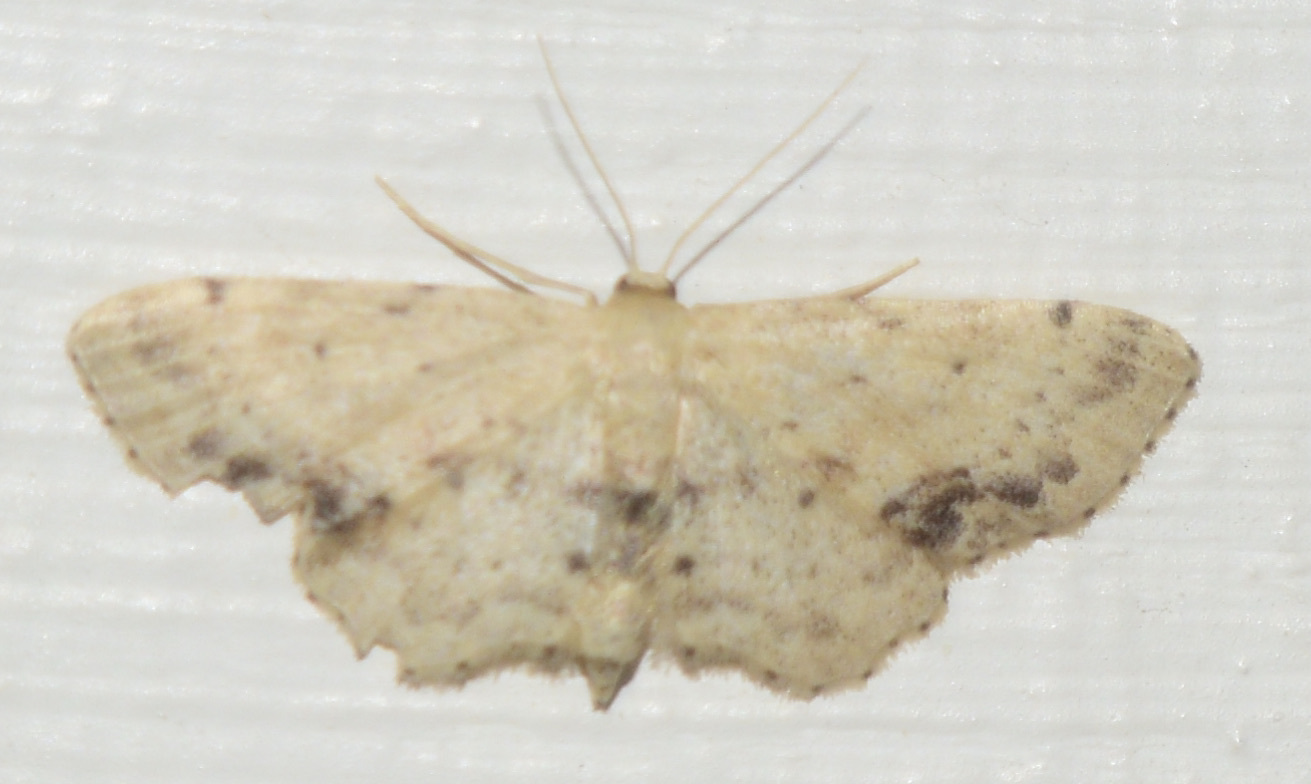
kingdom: Animalia
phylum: Arthropoda
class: Insecta
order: Lepidoptera
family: Geometridae
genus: Idaea
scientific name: Idaea dimidiata
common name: Single-dotted wave
